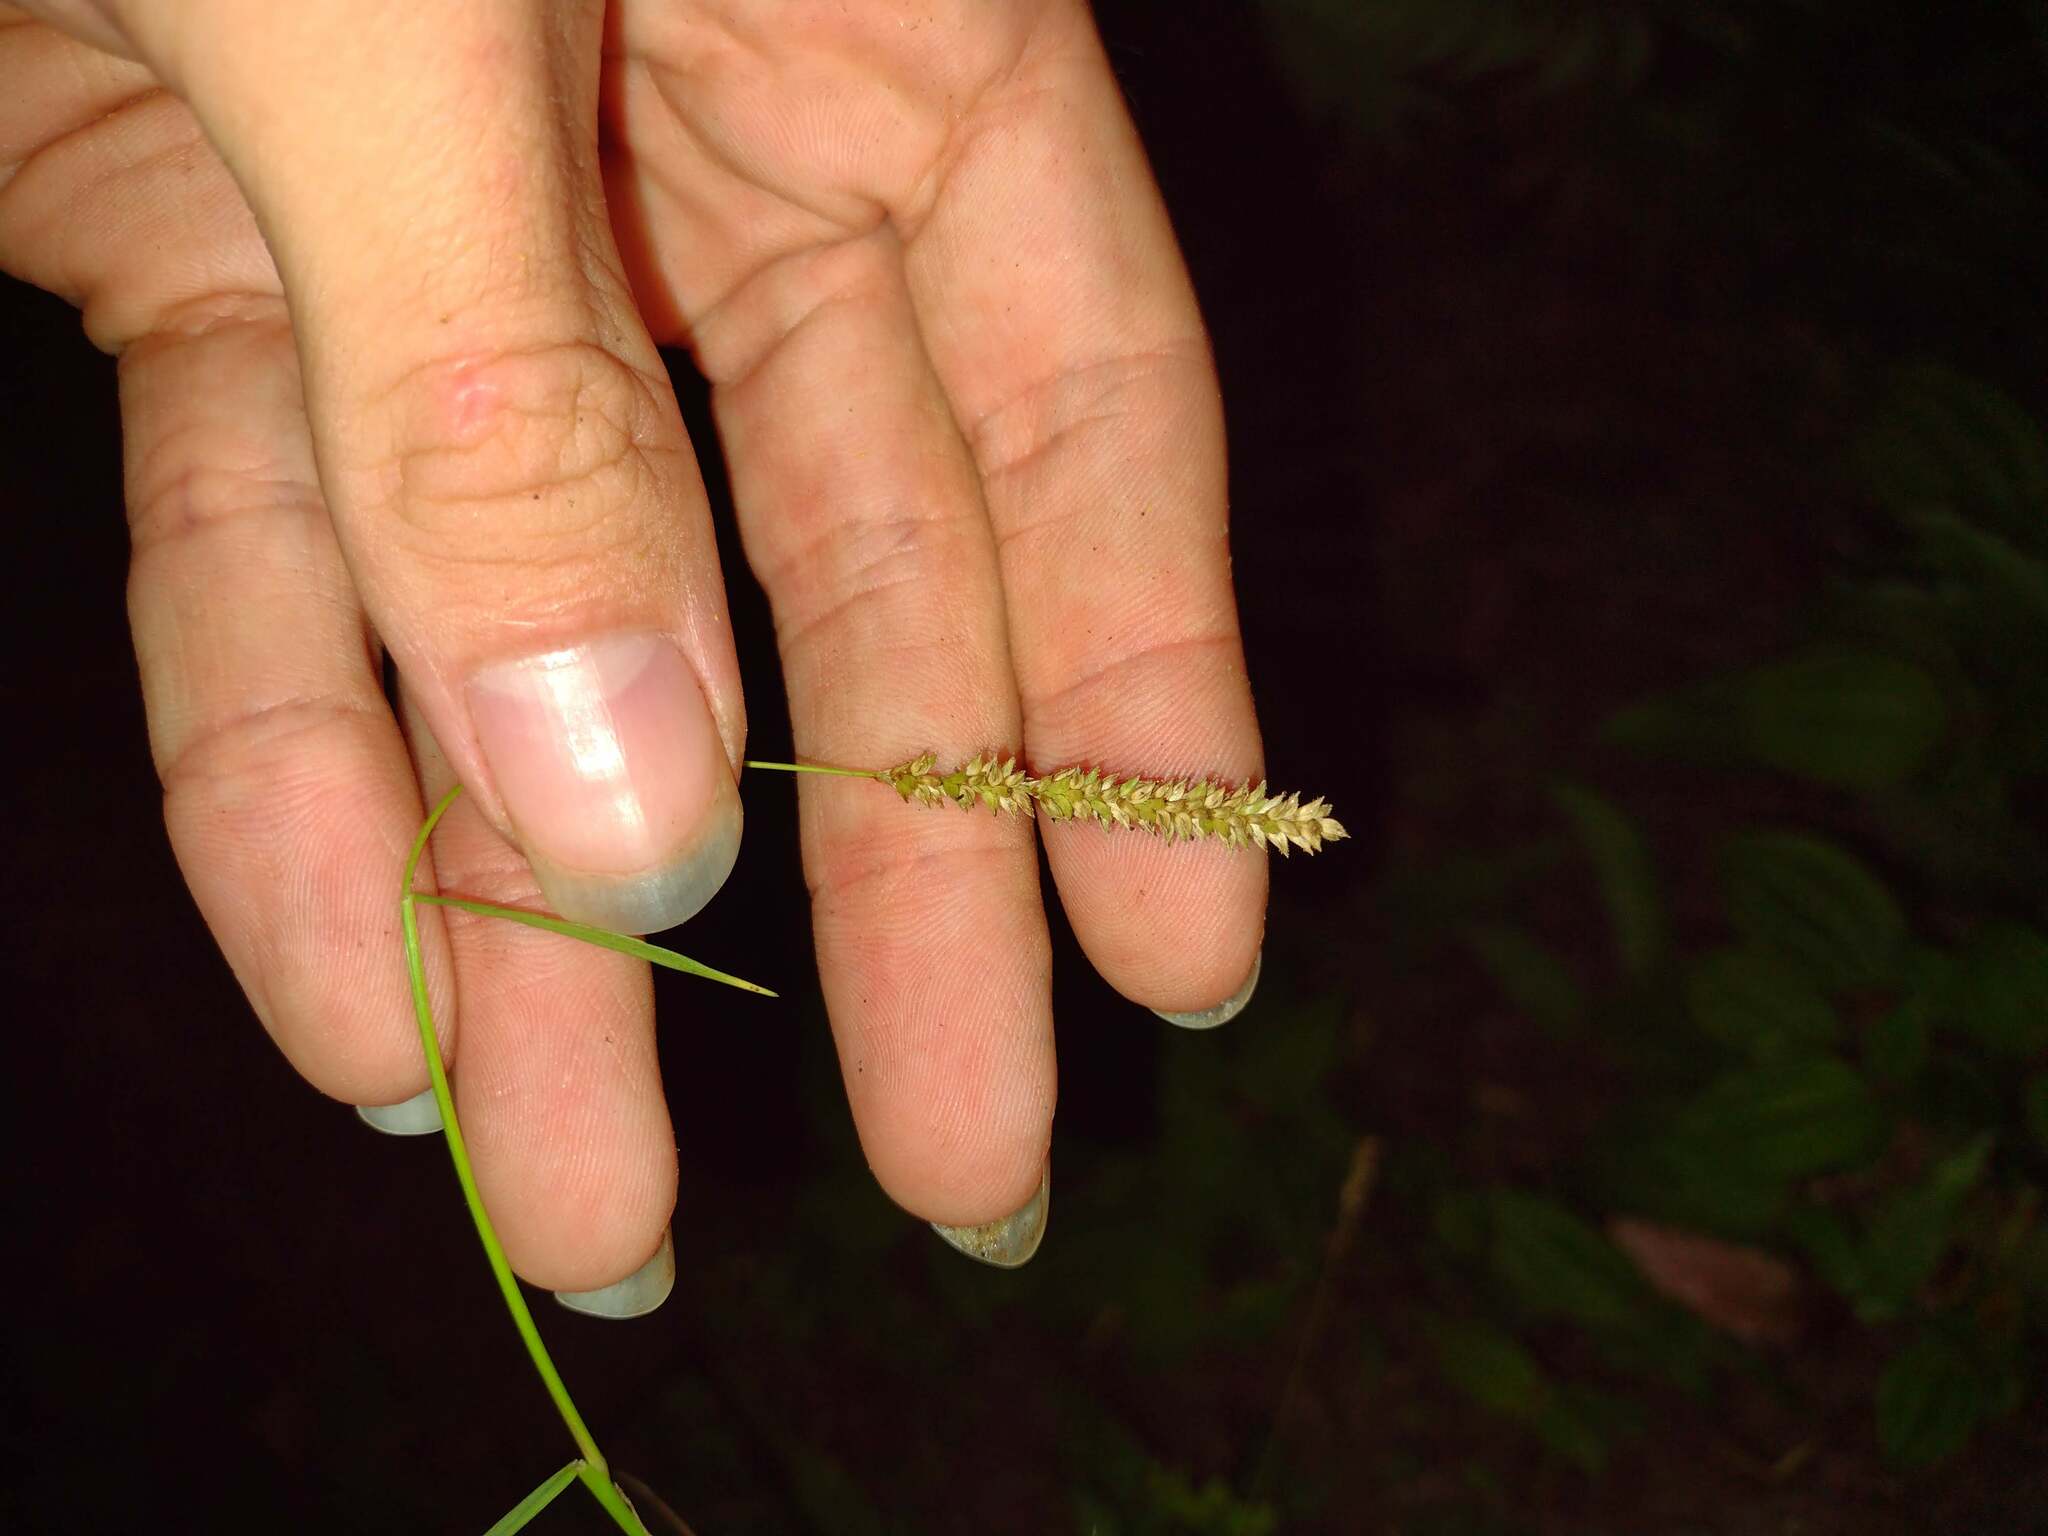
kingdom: Plantae
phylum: Tracheophyta
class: Liliopsida
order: Poales
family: Poaceae
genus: Sacciolepis
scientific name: Sacciolepis indica
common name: Glenwoodgrass
